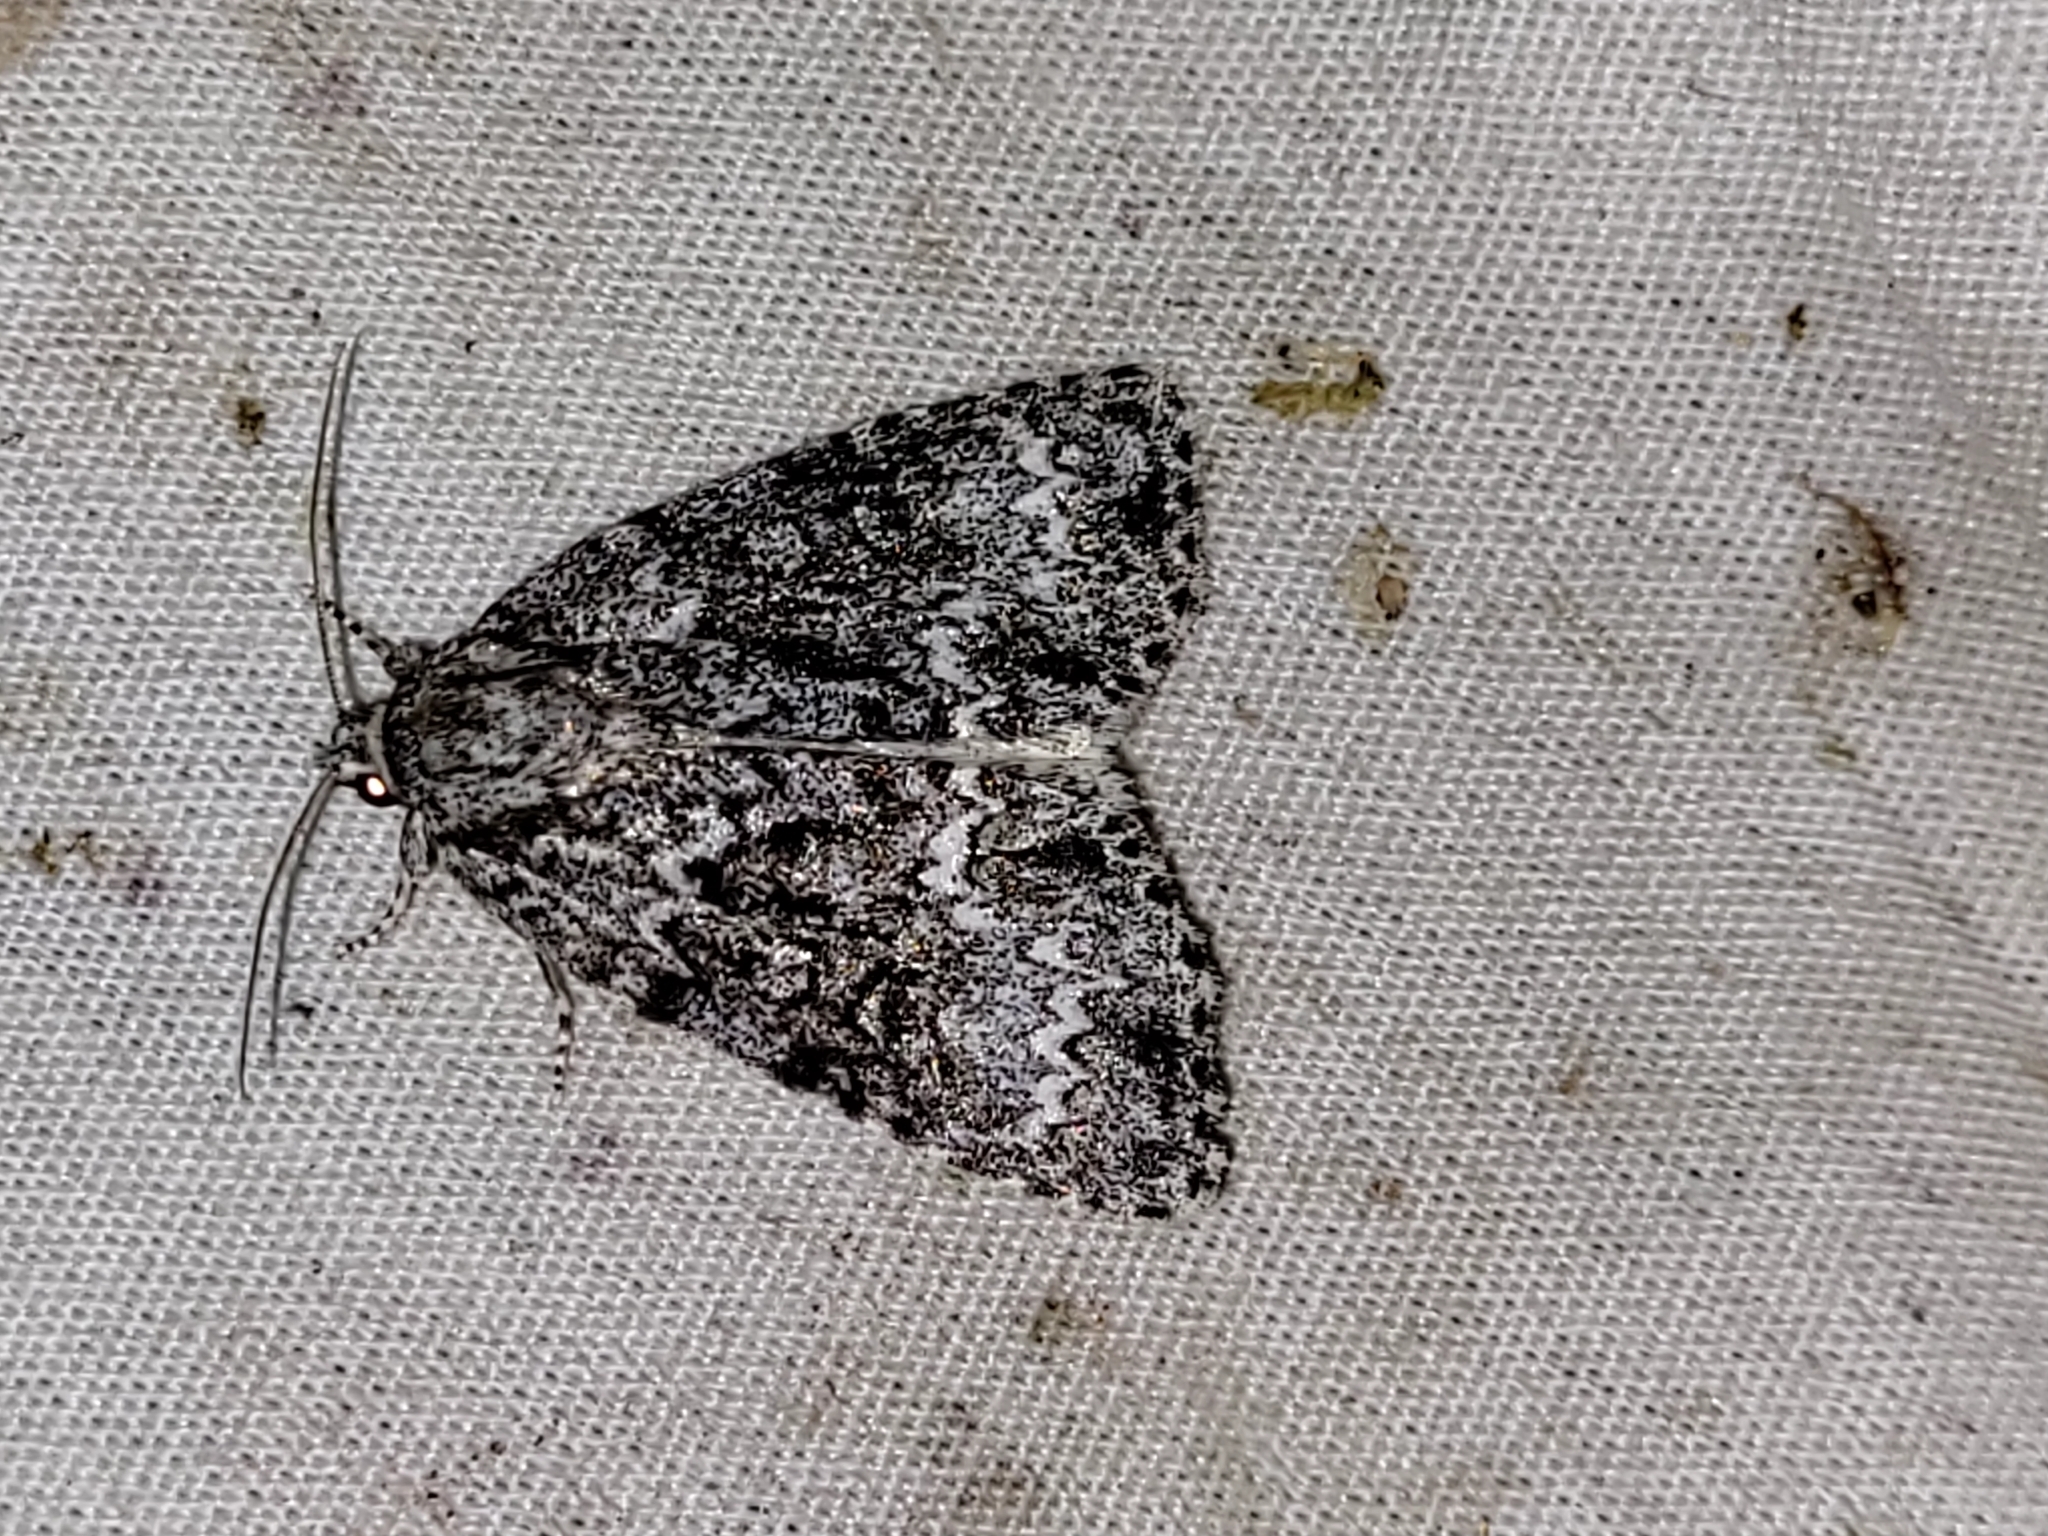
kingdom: Animalia
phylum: Arthropoda
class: Insecta
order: Lepidoptera
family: Noctuidae
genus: Acronicta
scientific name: Acronicta fragilis
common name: Fragile dagger
